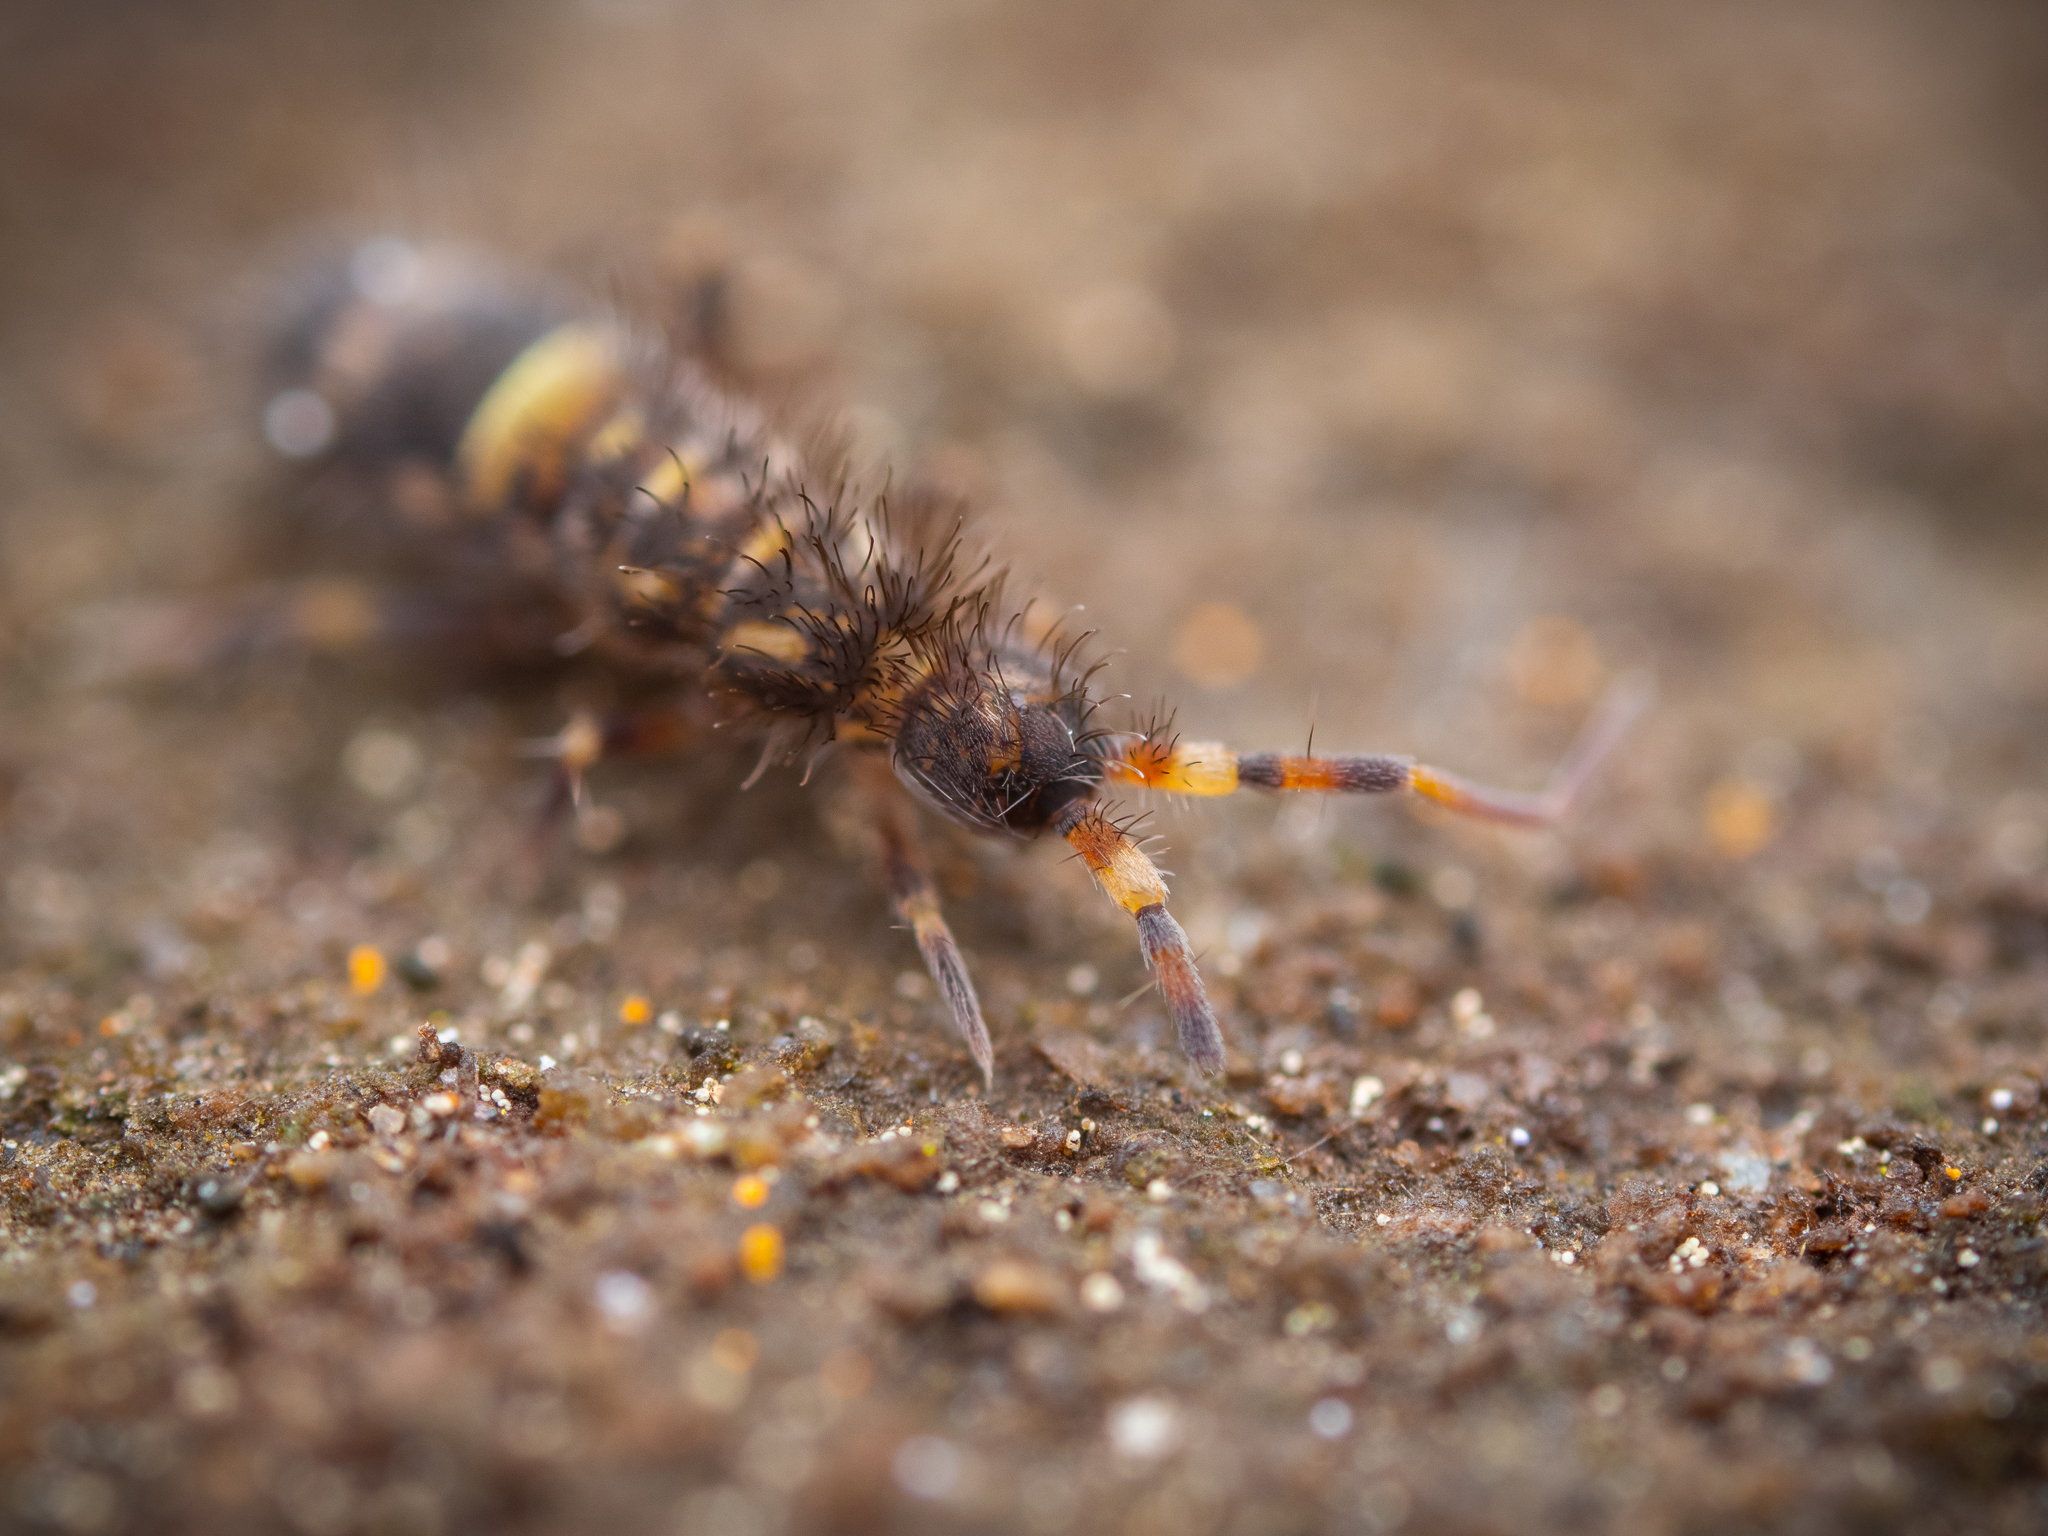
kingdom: Animalia
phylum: Arthropoda
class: Collembola
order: Entomobryomorpha
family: Orchesellidae
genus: Orchesella
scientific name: Orchesella cincta
